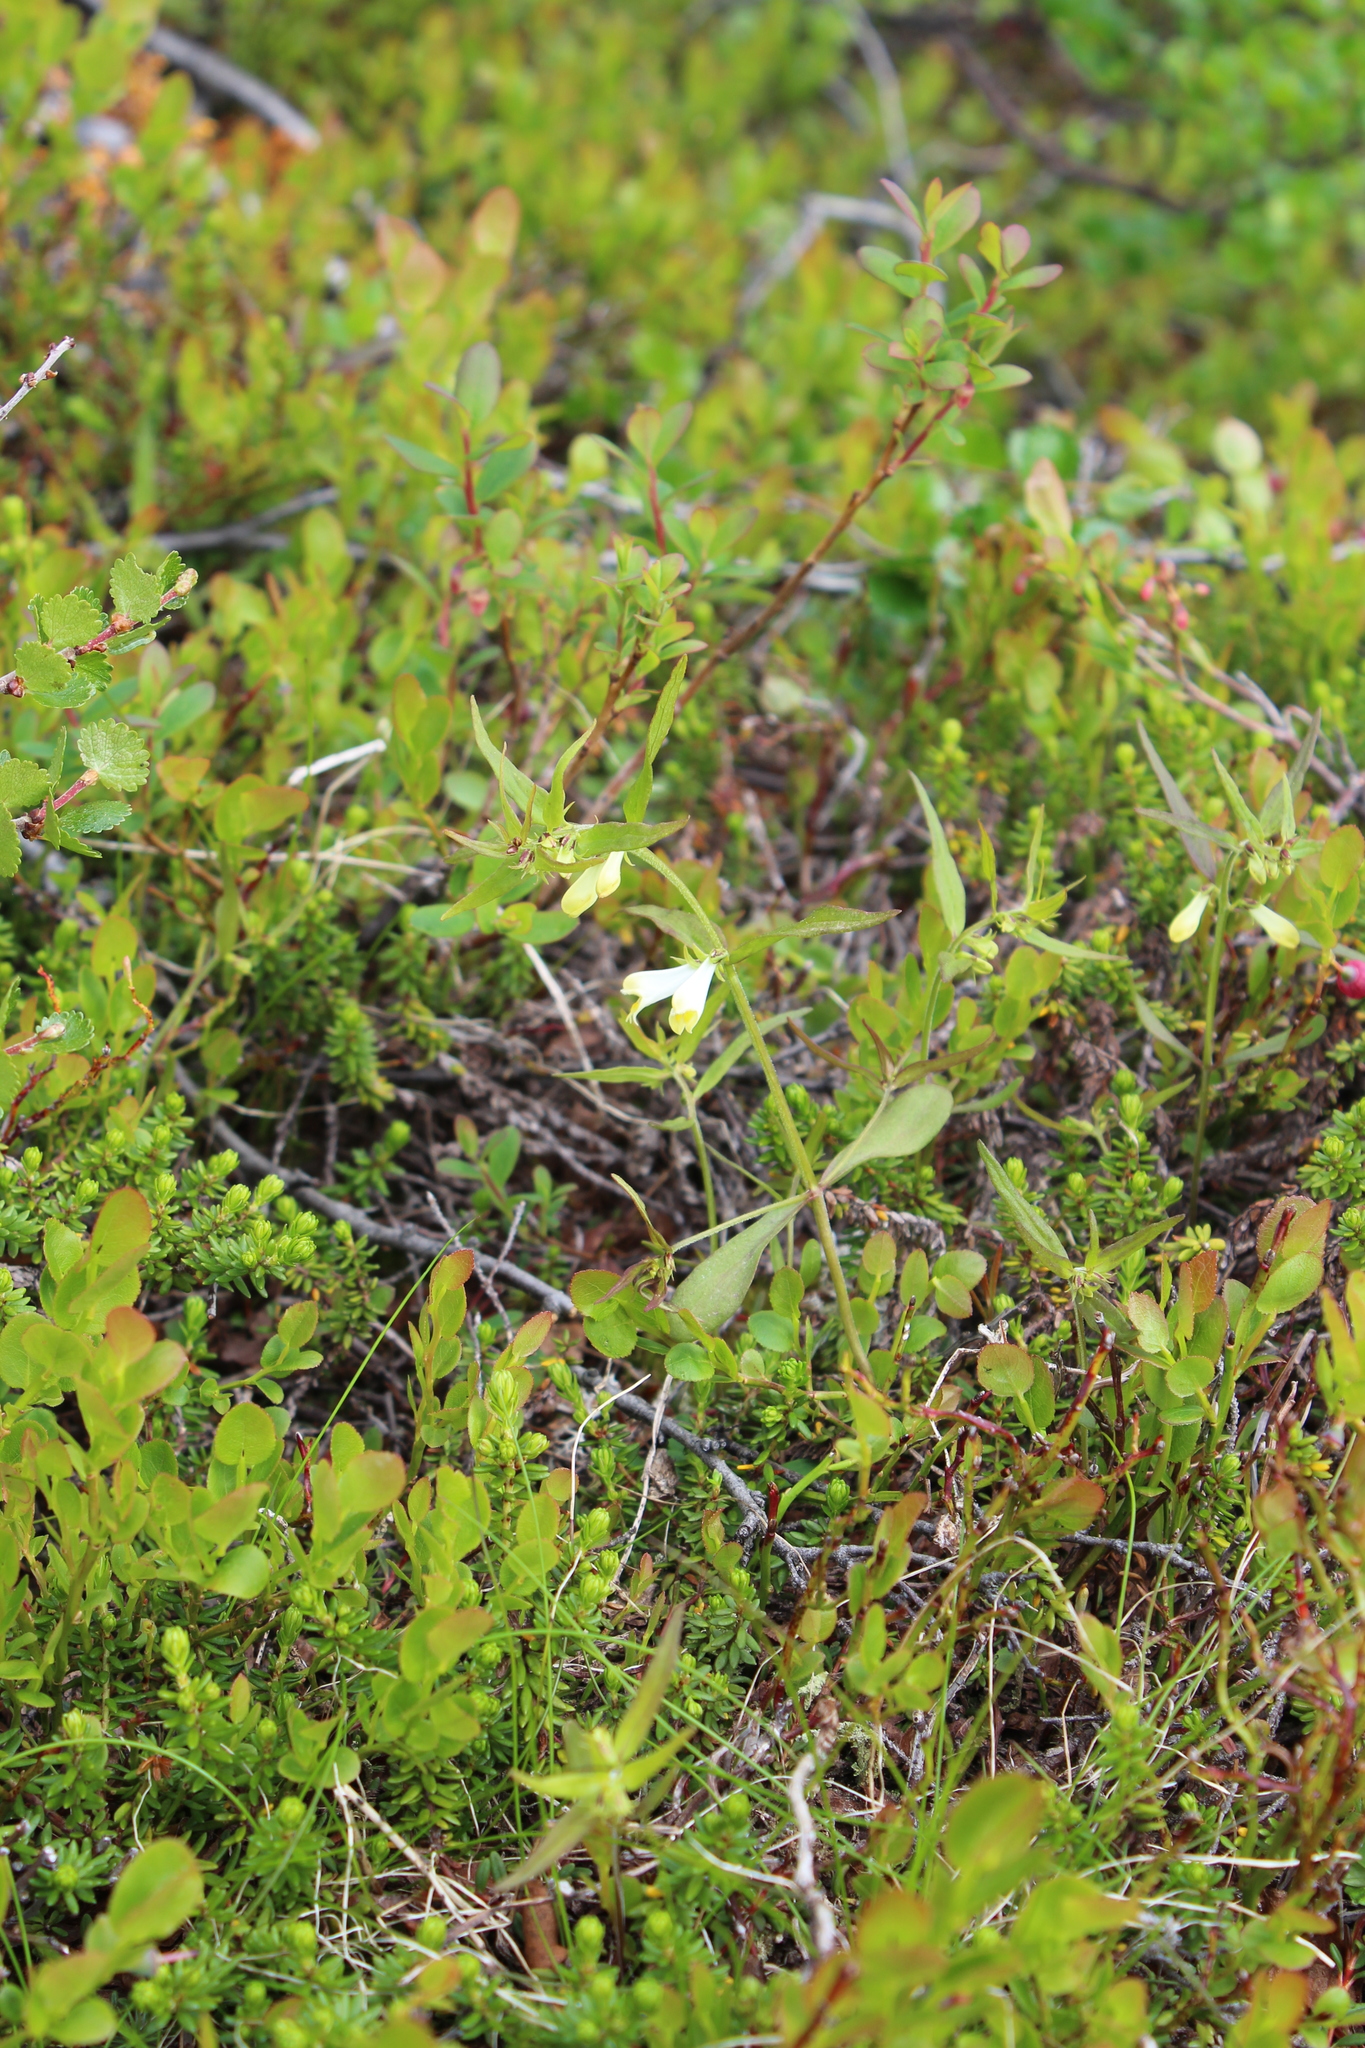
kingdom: Plantae
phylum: Tracheophyta
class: Magnoliopsida
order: Lamiales
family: Orobanchaceae
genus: Melampyrum
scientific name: Melampyrum pratense
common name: Common cow-wheat
